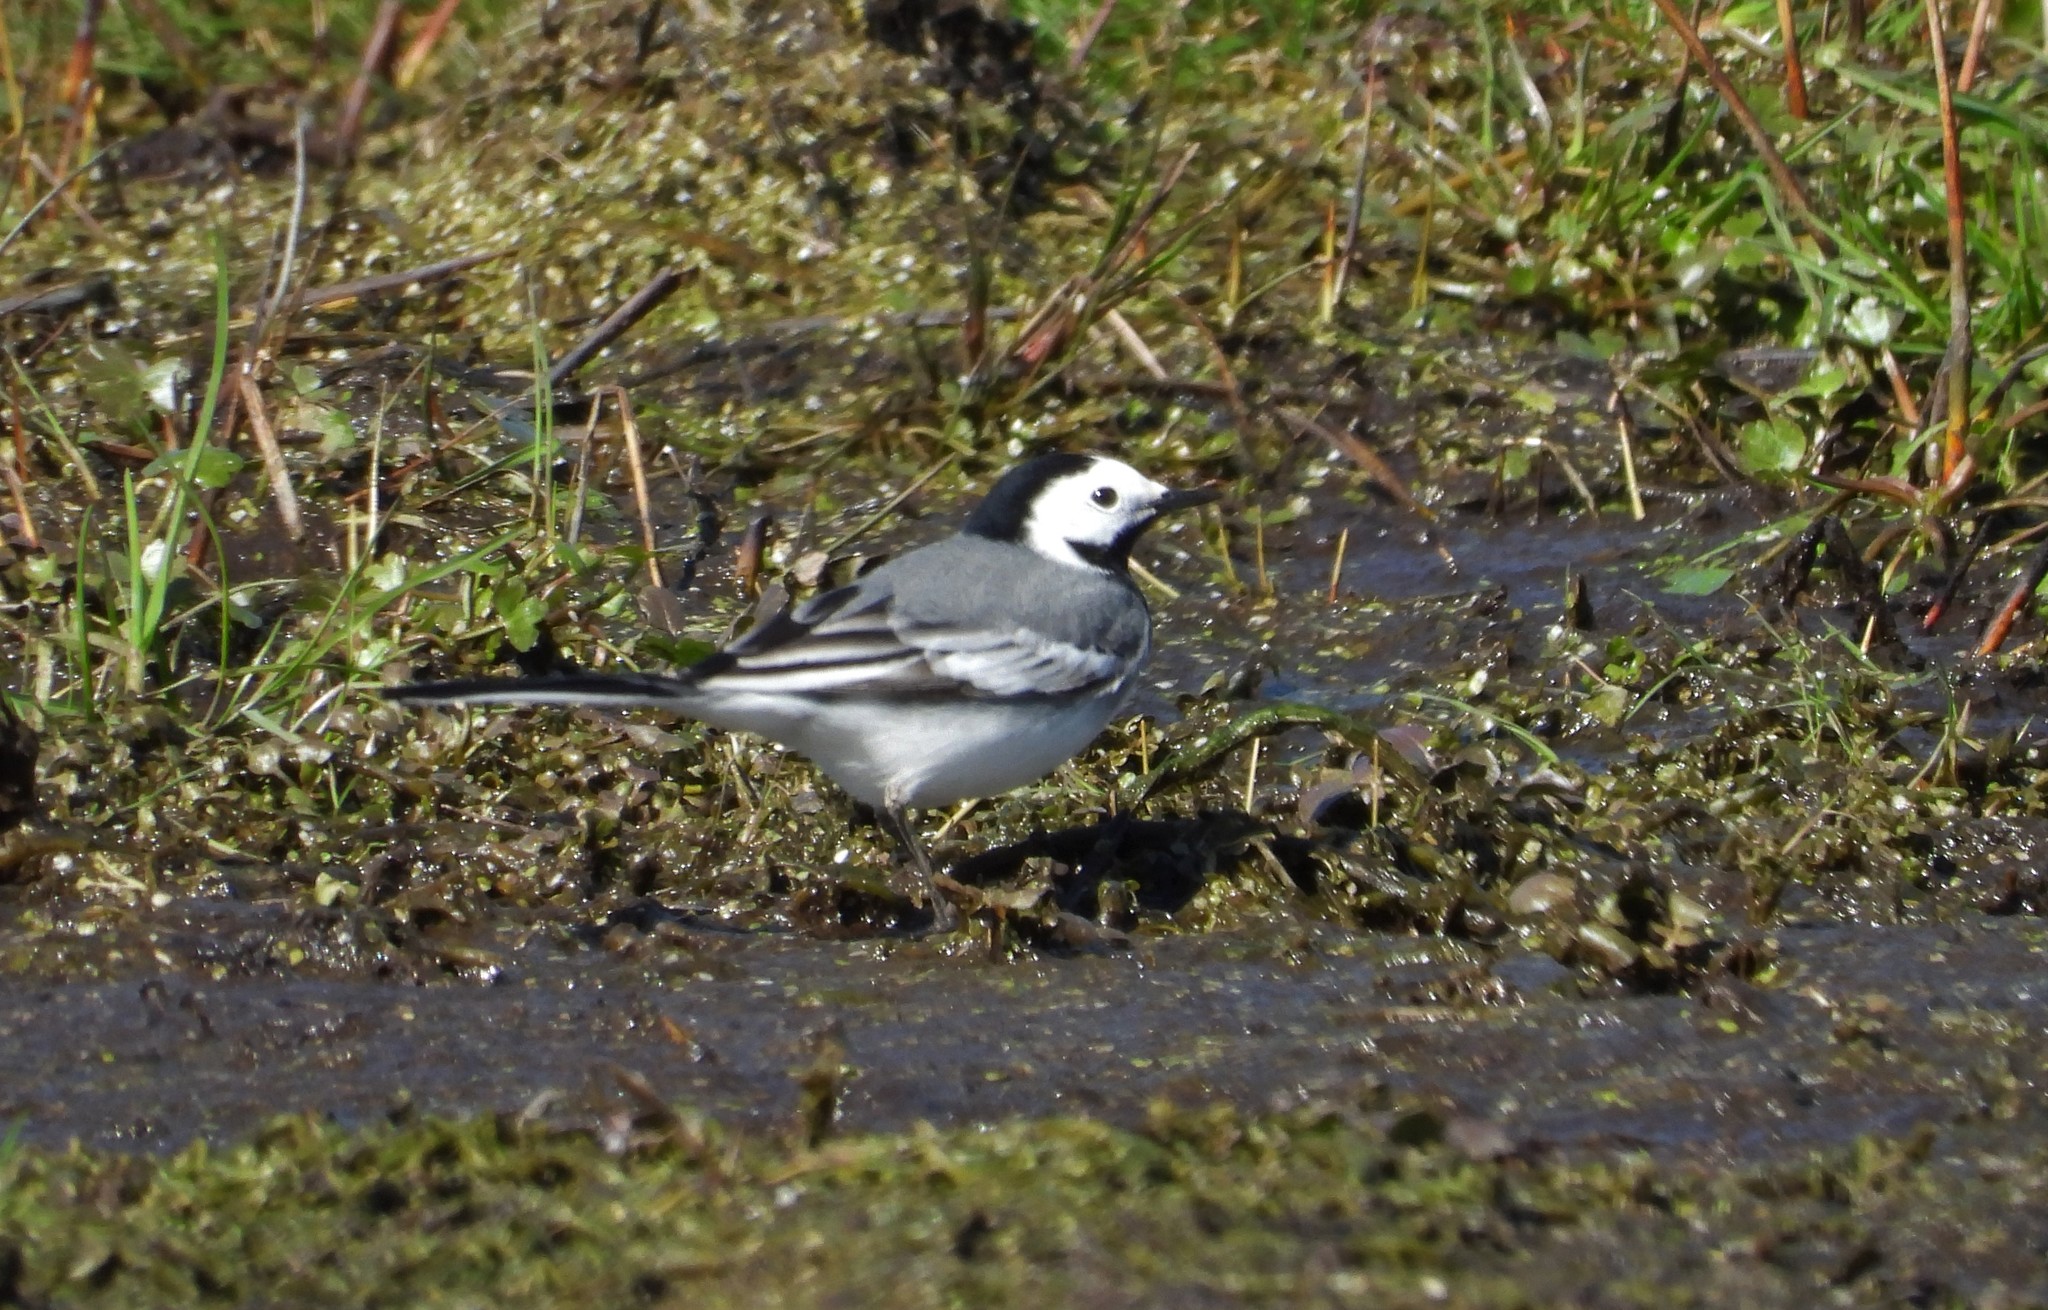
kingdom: Animalia
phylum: Chordata
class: Aves
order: Passeriformes
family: Motacillidae
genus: Motacilla
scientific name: Motacilla alba
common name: White wagtail
